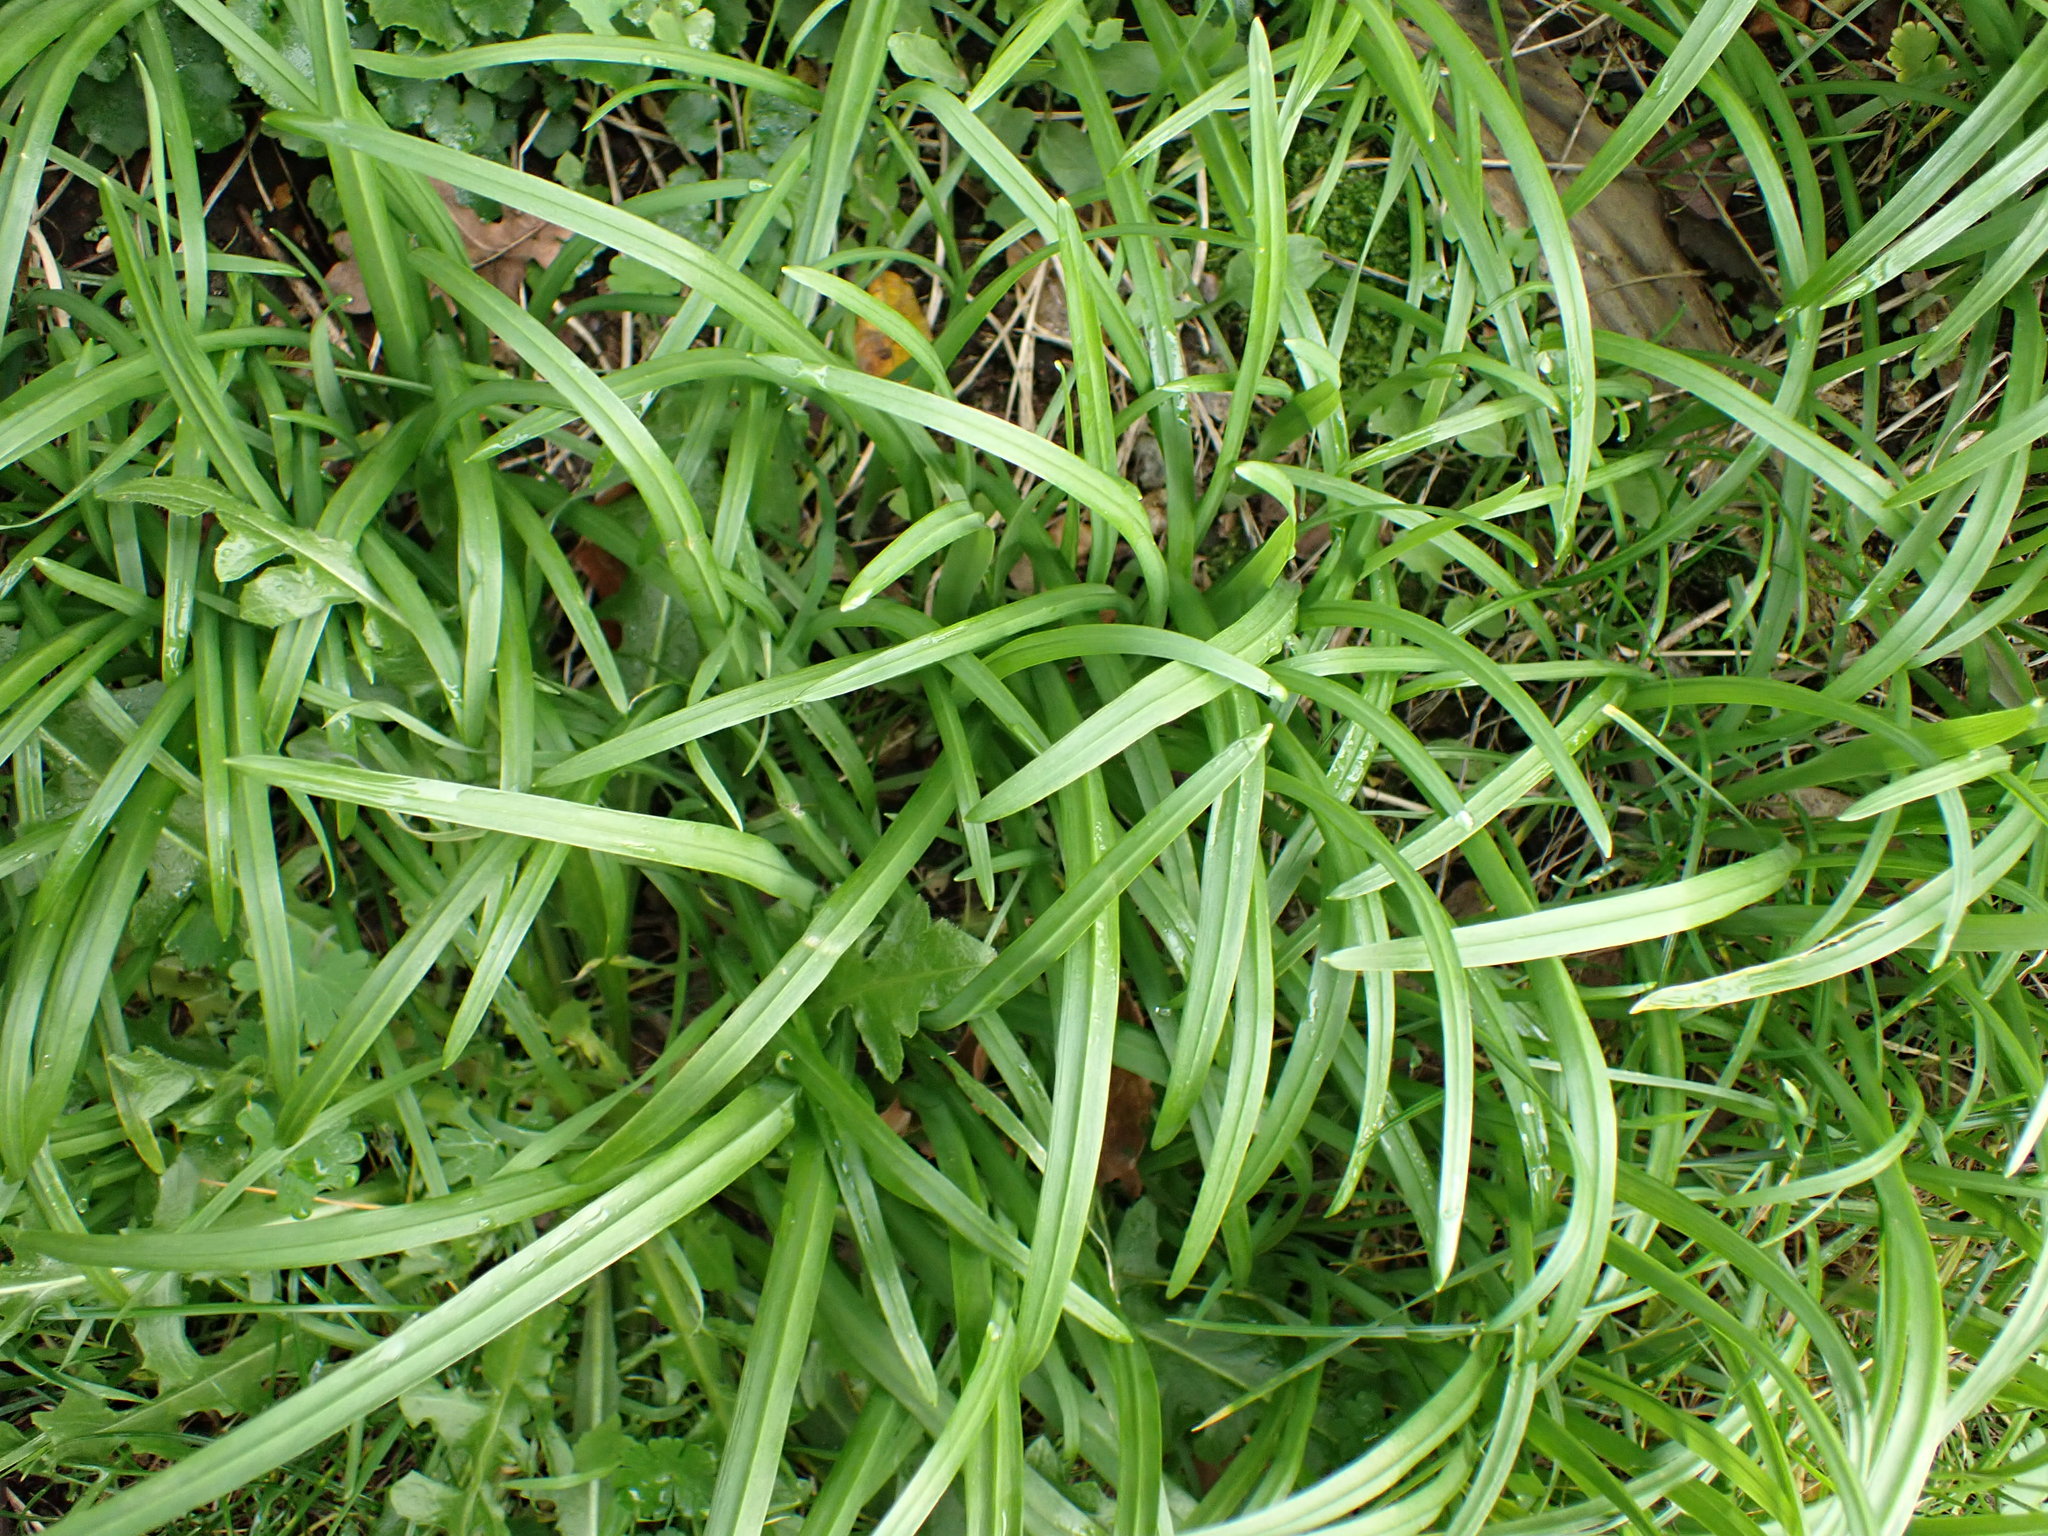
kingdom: Plantae
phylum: Tracheophyta
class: Liliopsida
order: Asparagales
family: Amaryllidaceae
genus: Allium
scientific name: Allium triquetrum
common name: Three-cornered garlic
